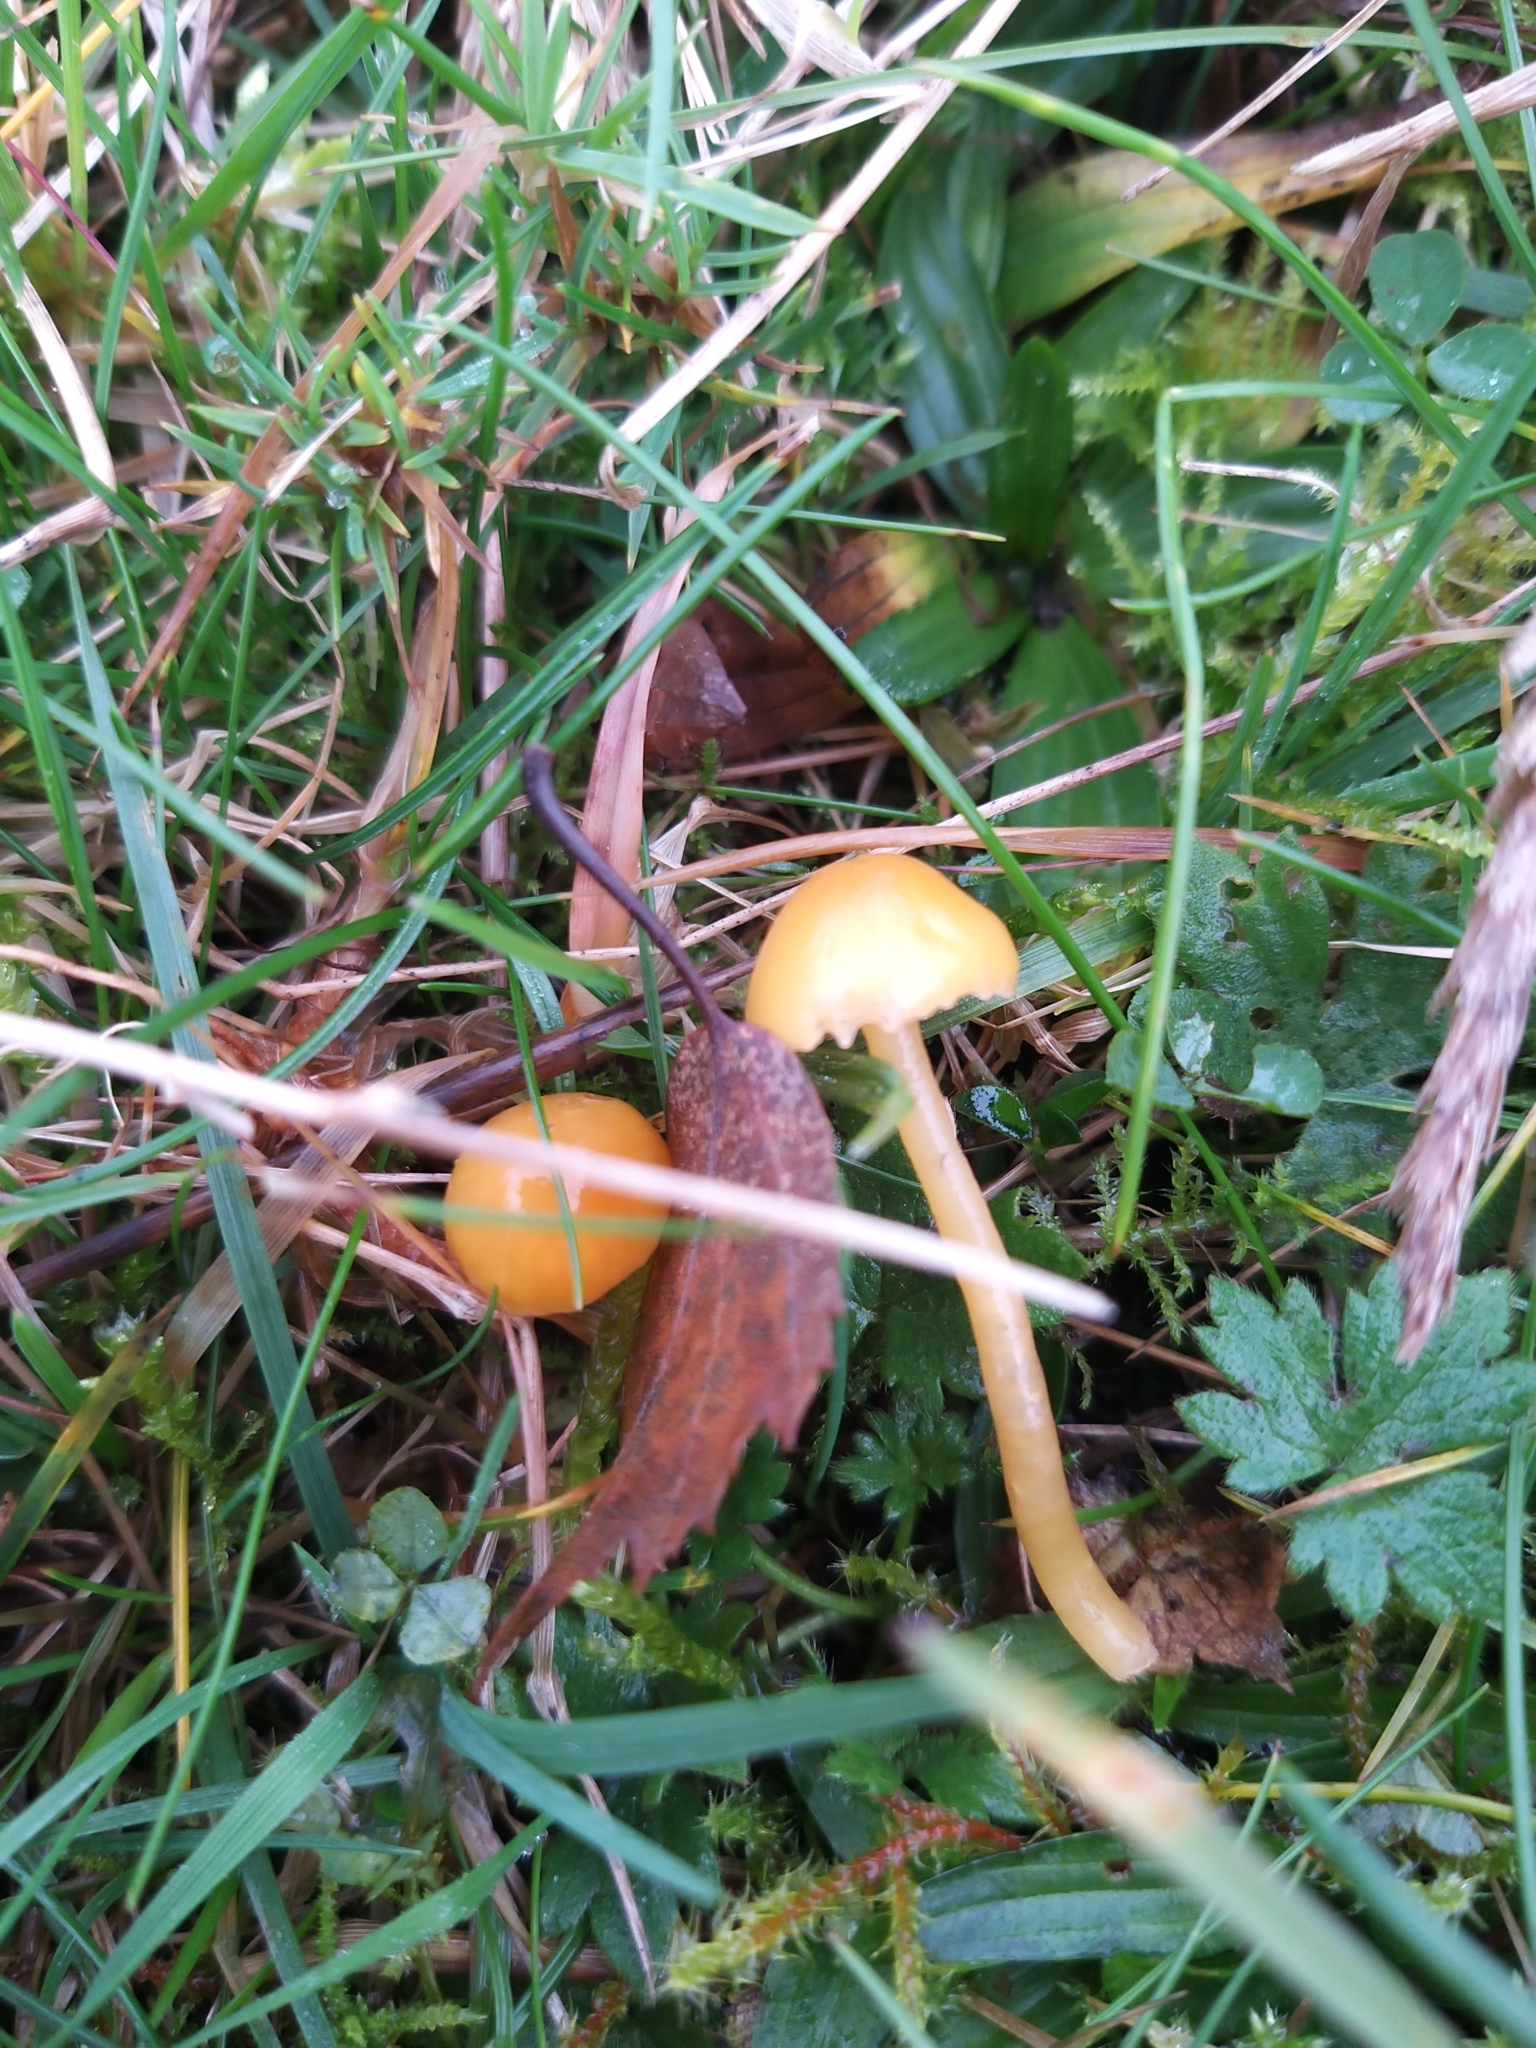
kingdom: Fungi
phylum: Basidiomycota
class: Agaricomycetes
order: Agaricales
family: Hygrophoraceae
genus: Gliophorus
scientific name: Gliophorus psittacinus
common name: Parrot wax-cap
